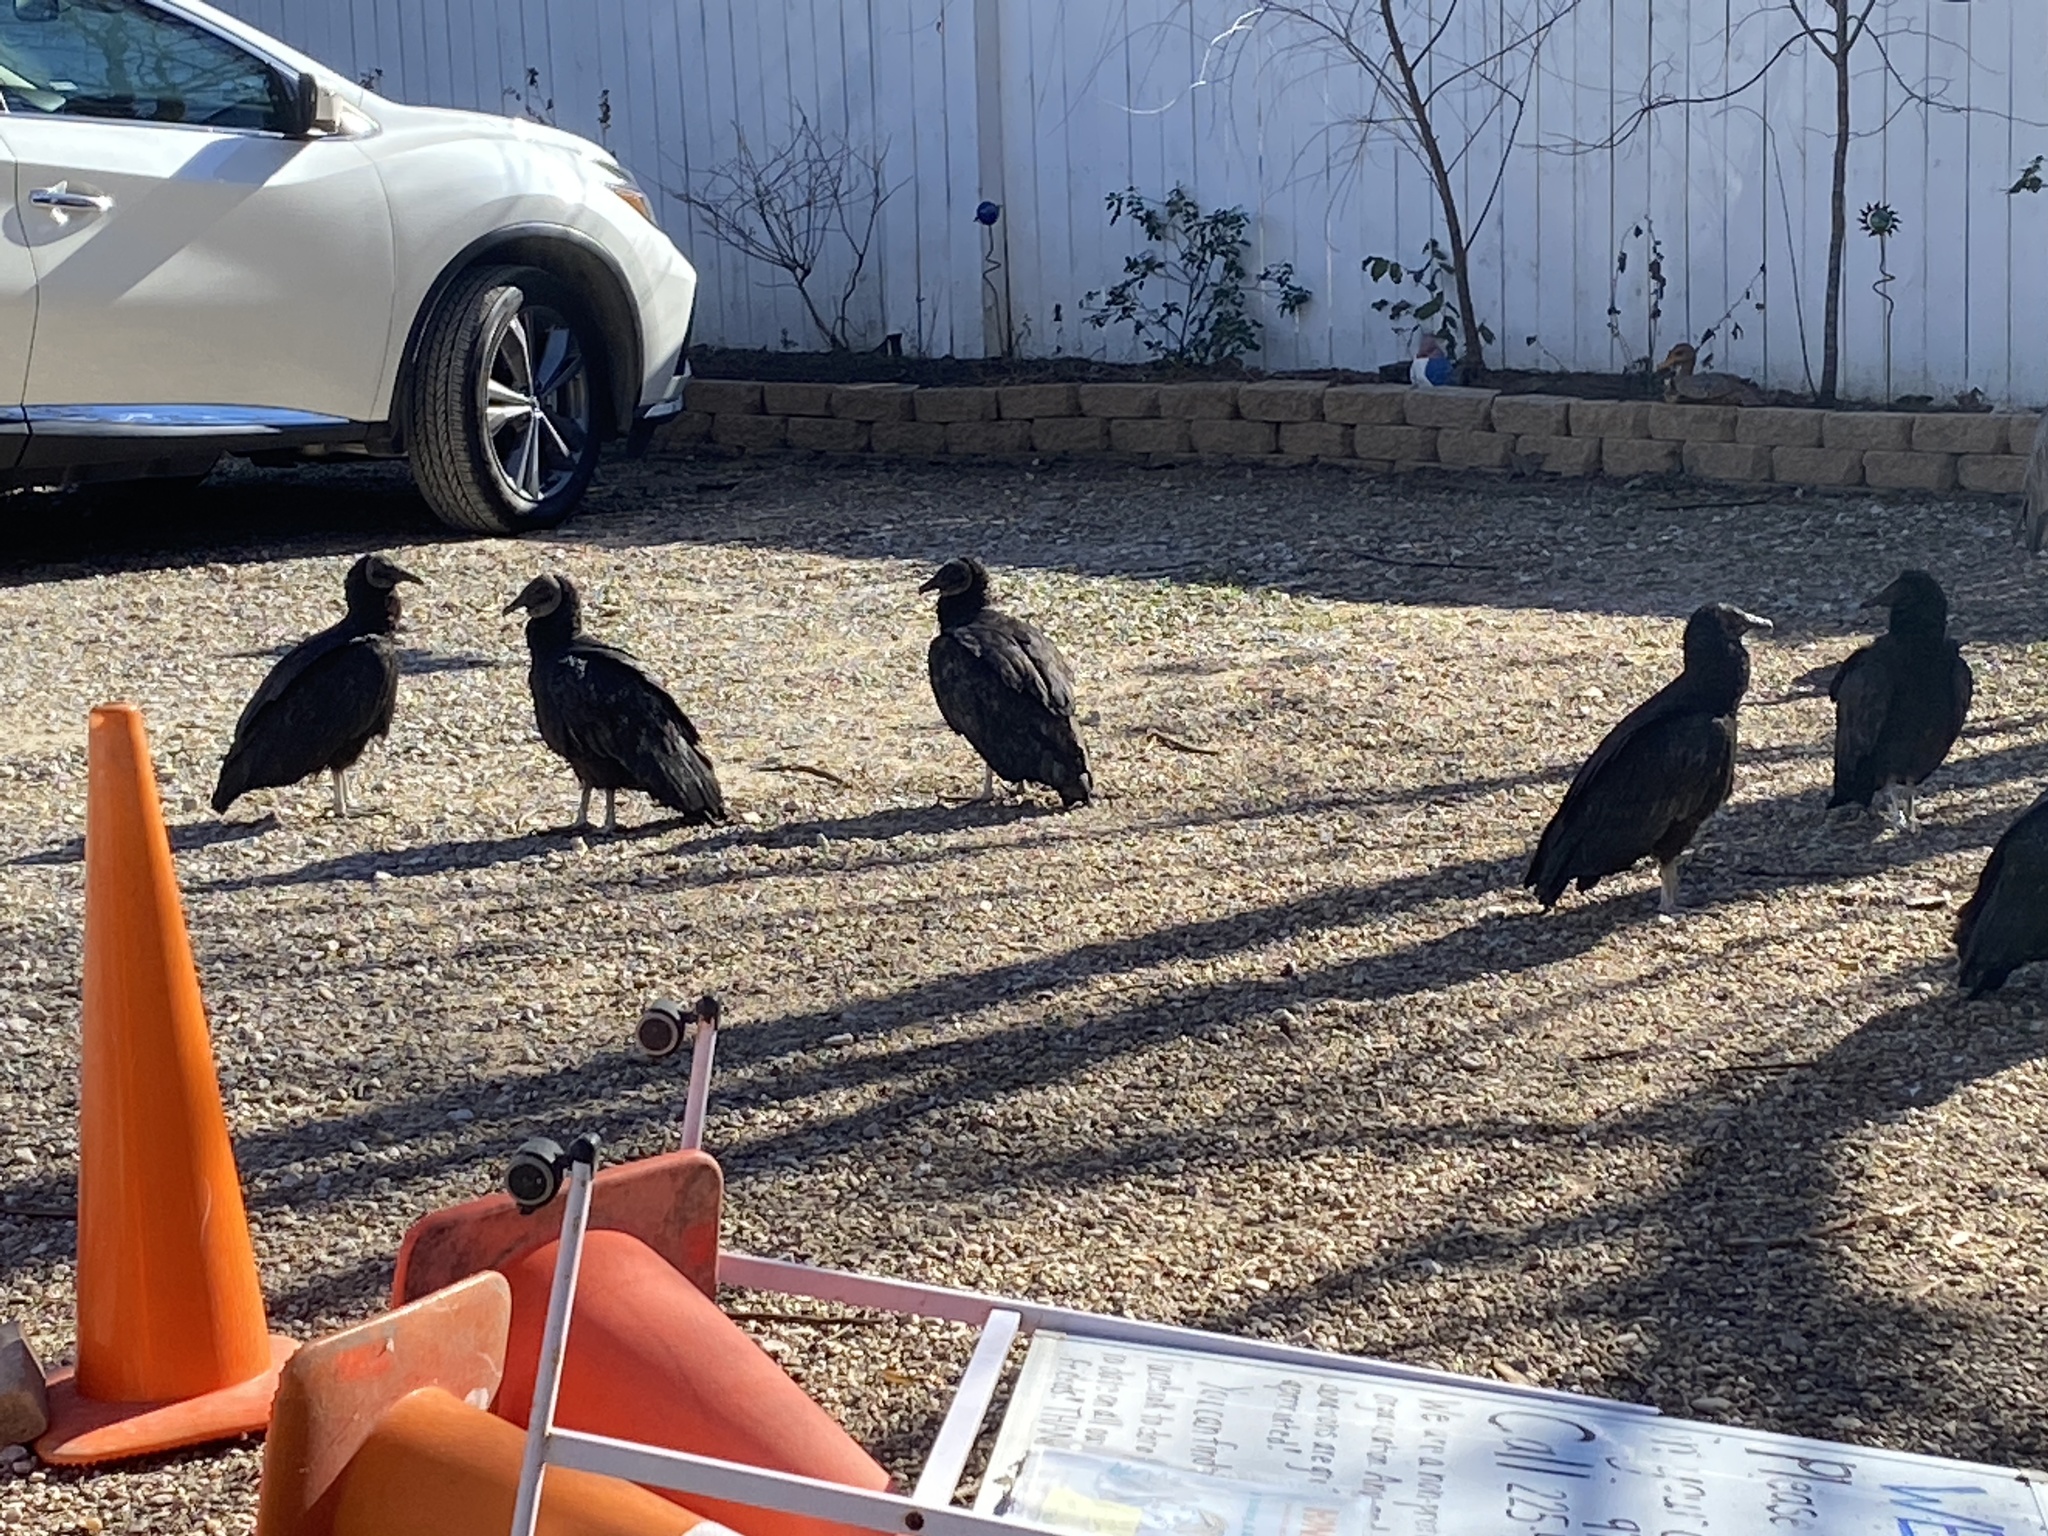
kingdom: Animalia
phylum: Chordata
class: Aves
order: Accipitriformes
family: Cathartidae
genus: Coragyps
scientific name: Coragyps atratus
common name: Black vulture
